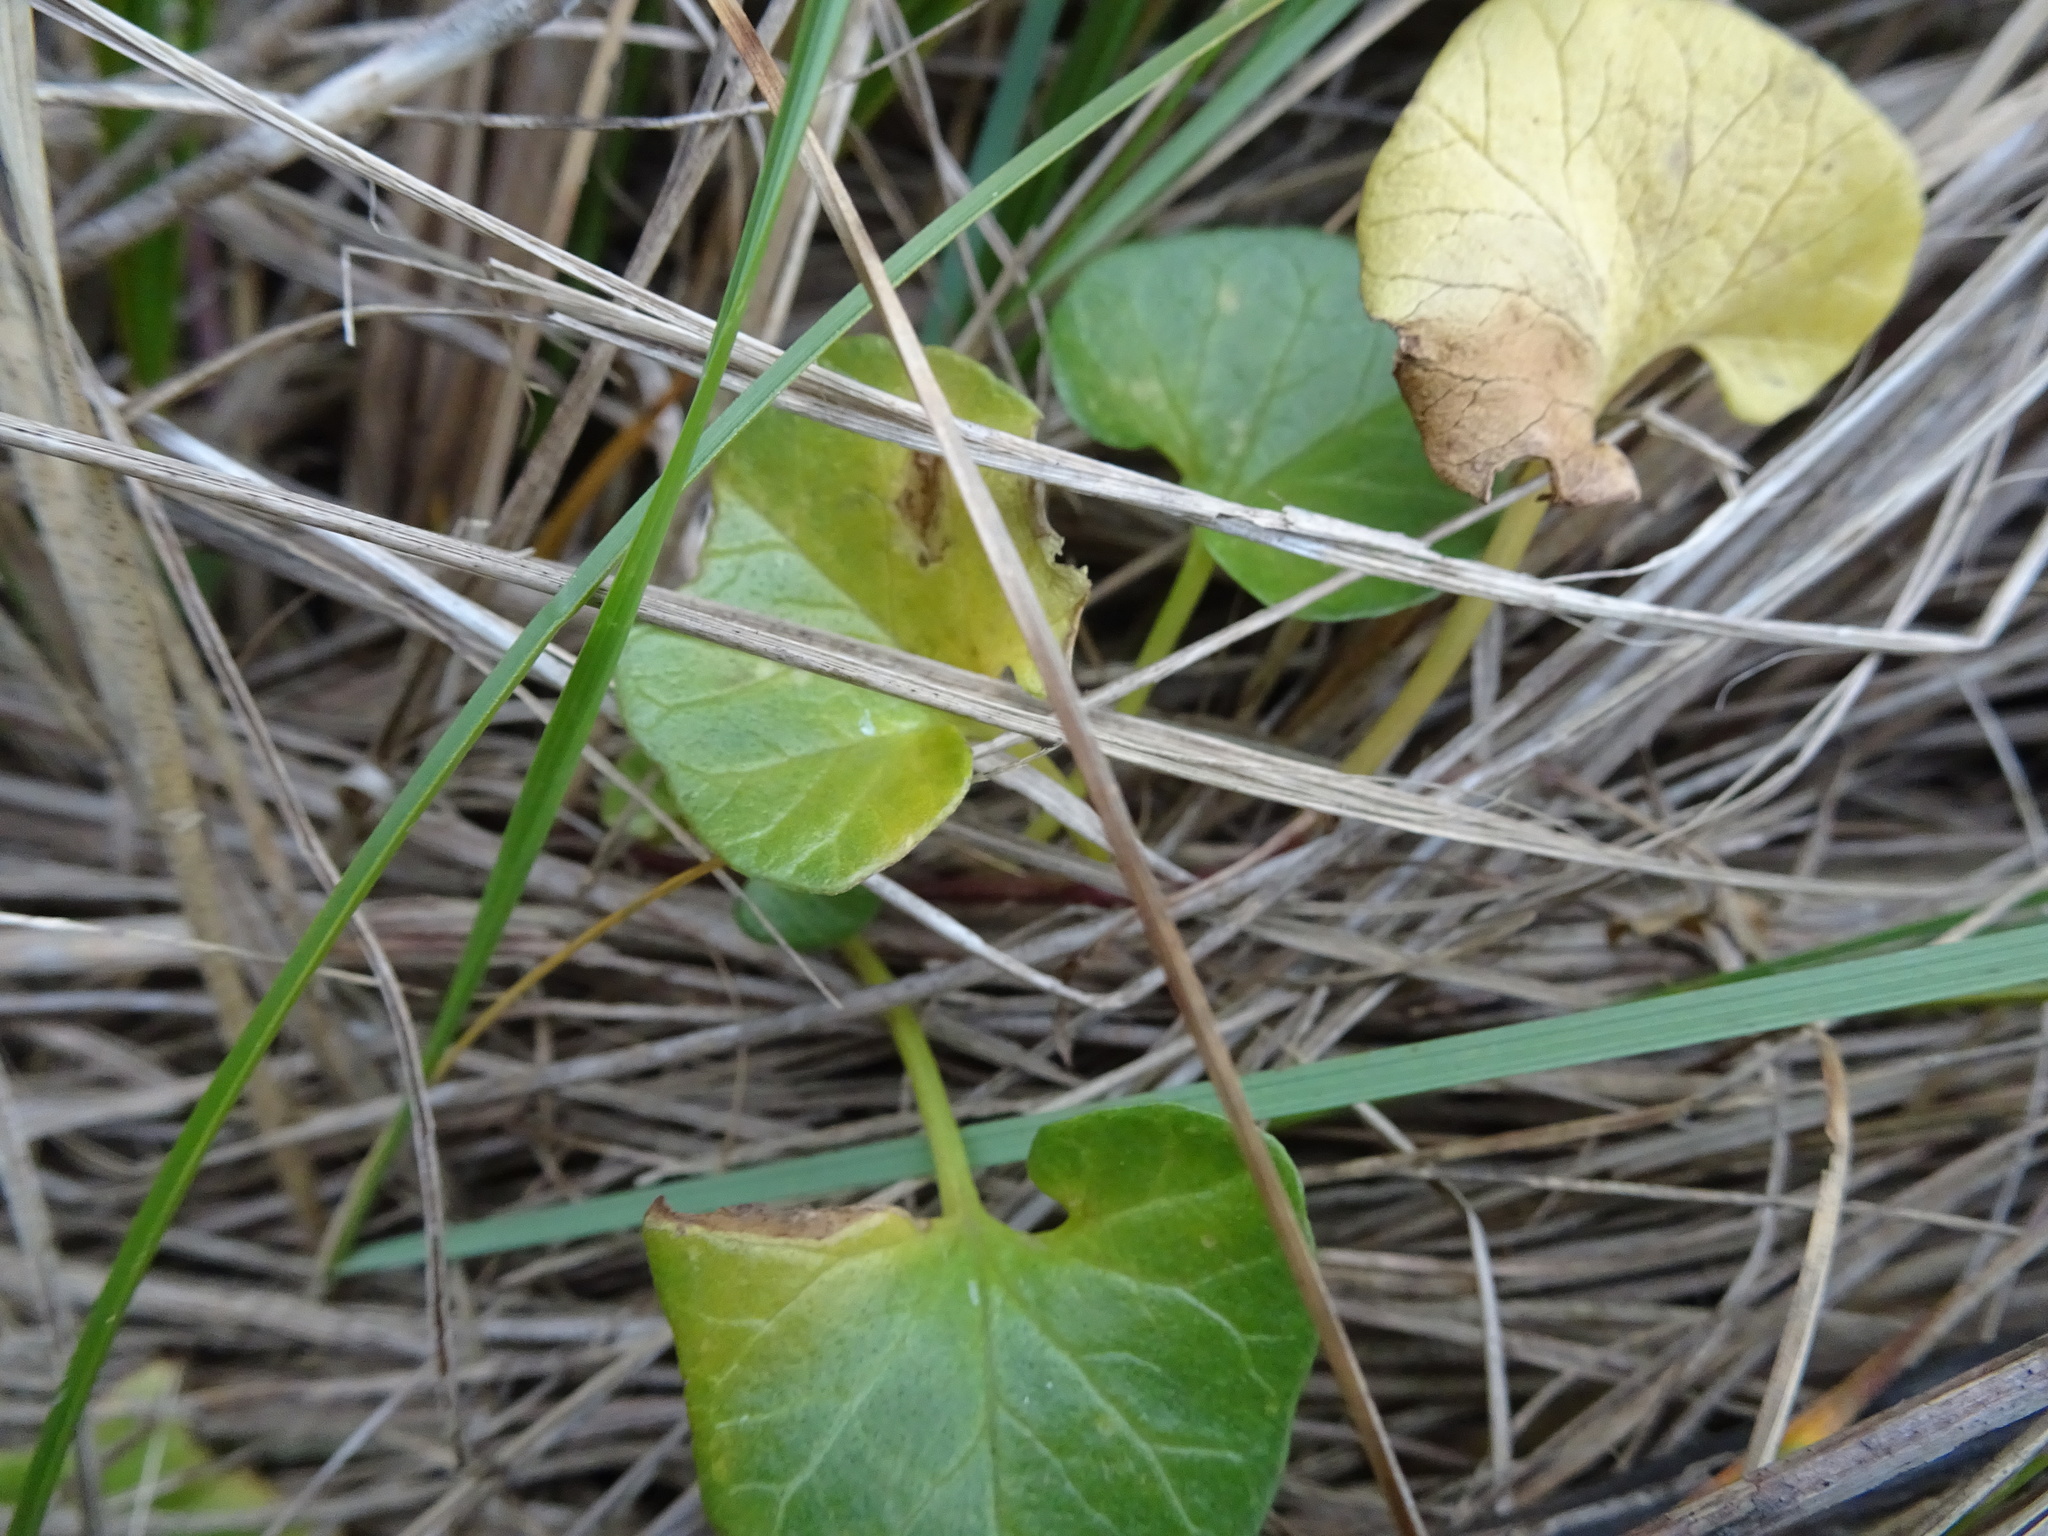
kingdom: Plantae
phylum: Tracheophyta
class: Magnoliopsida
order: Solanales
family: Convolvulaceae
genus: Calystegia
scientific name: Calystegia soldanella
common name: Sea bindweed
